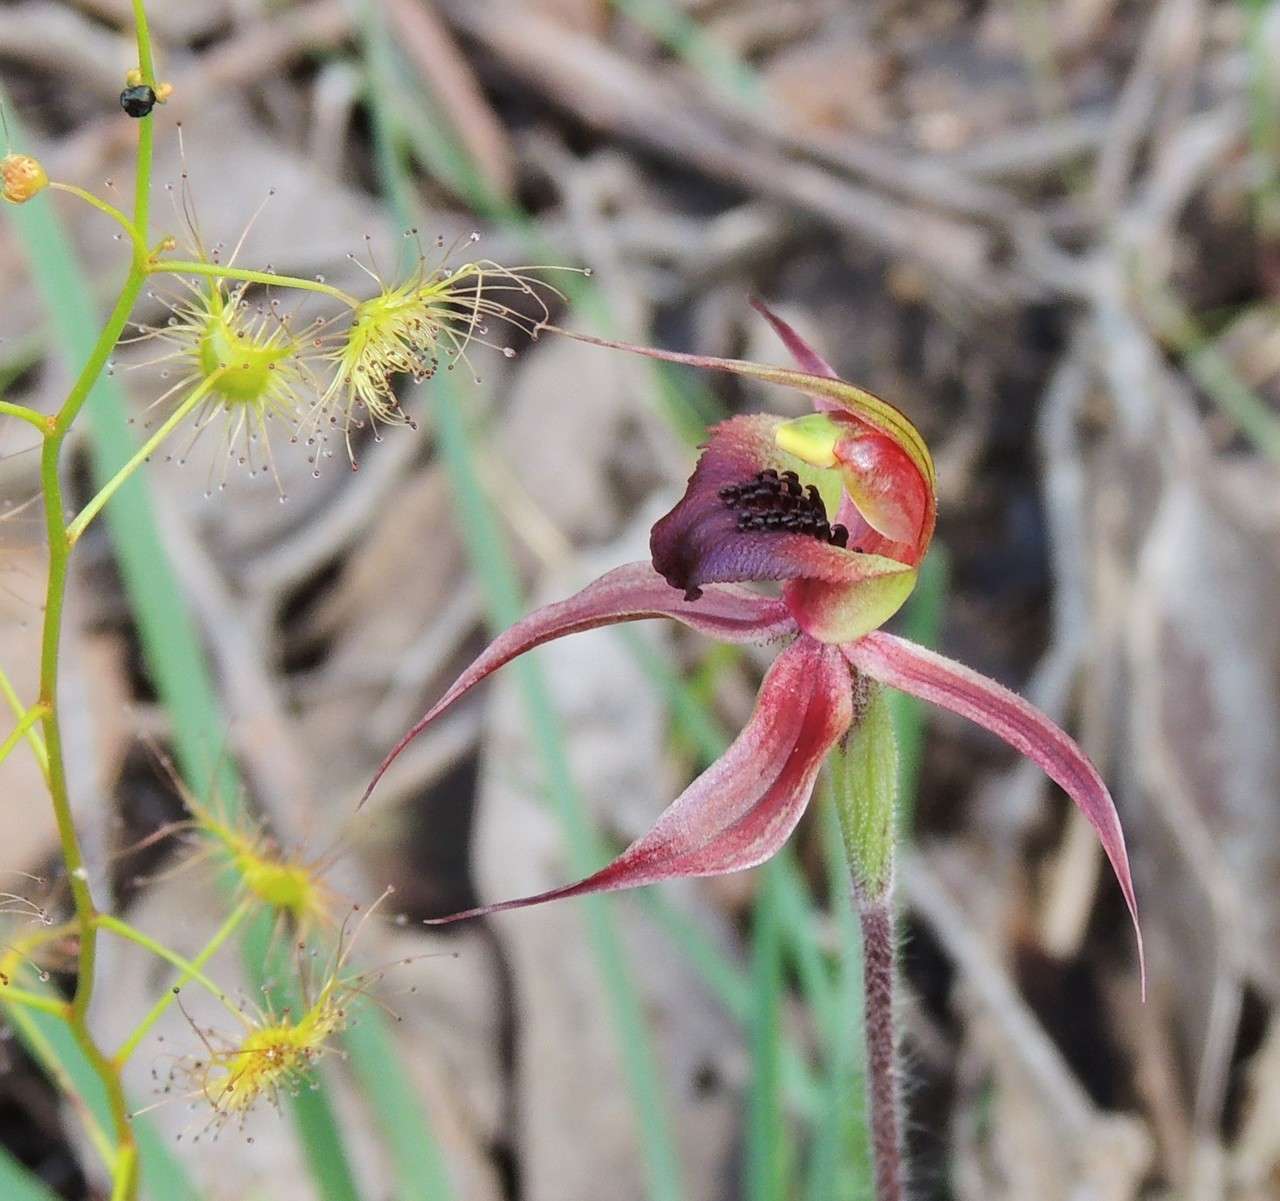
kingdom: Plantae
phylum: Tracheophyta
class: Liliopsida
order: Asparagales
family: Orchidaceae
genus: Caladenia
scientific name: Caladenia clavigera
